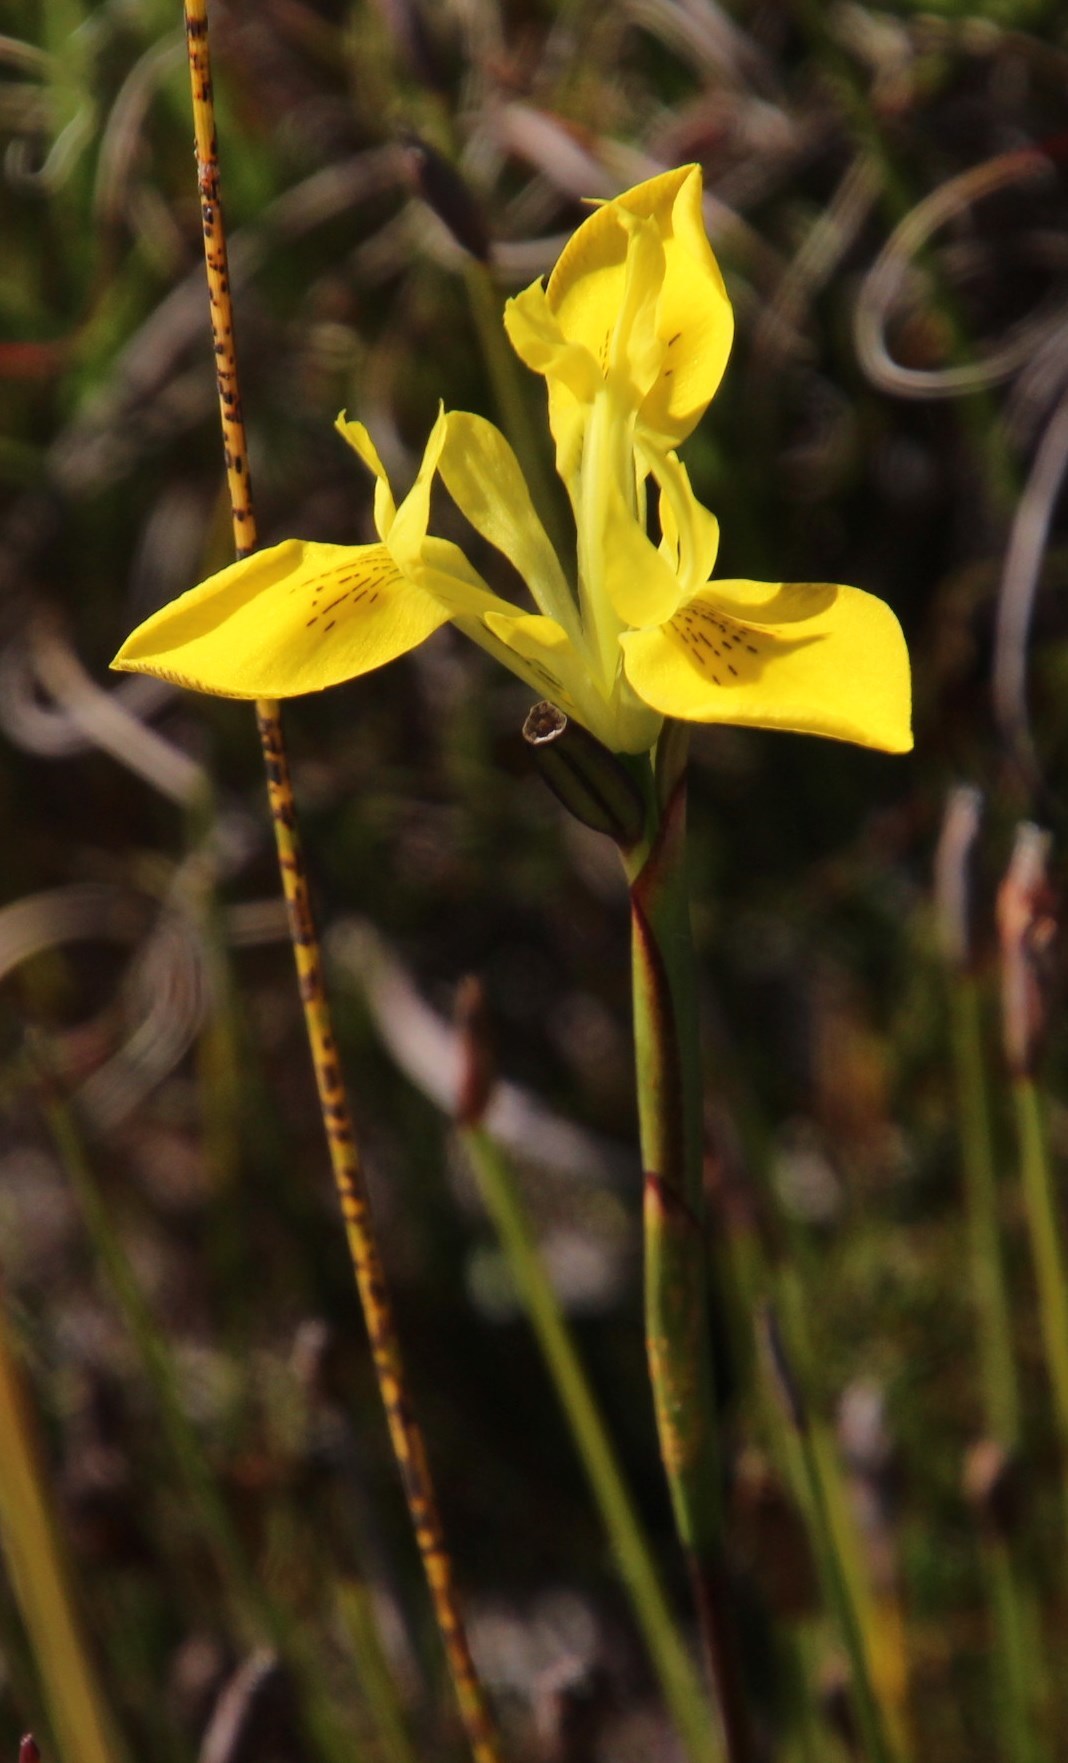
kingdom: Plantae
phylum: Tracheophyta
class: Liliopsida
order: Asparagales
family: Iridaceae
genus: Moraea
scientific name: Moraea neglecta
